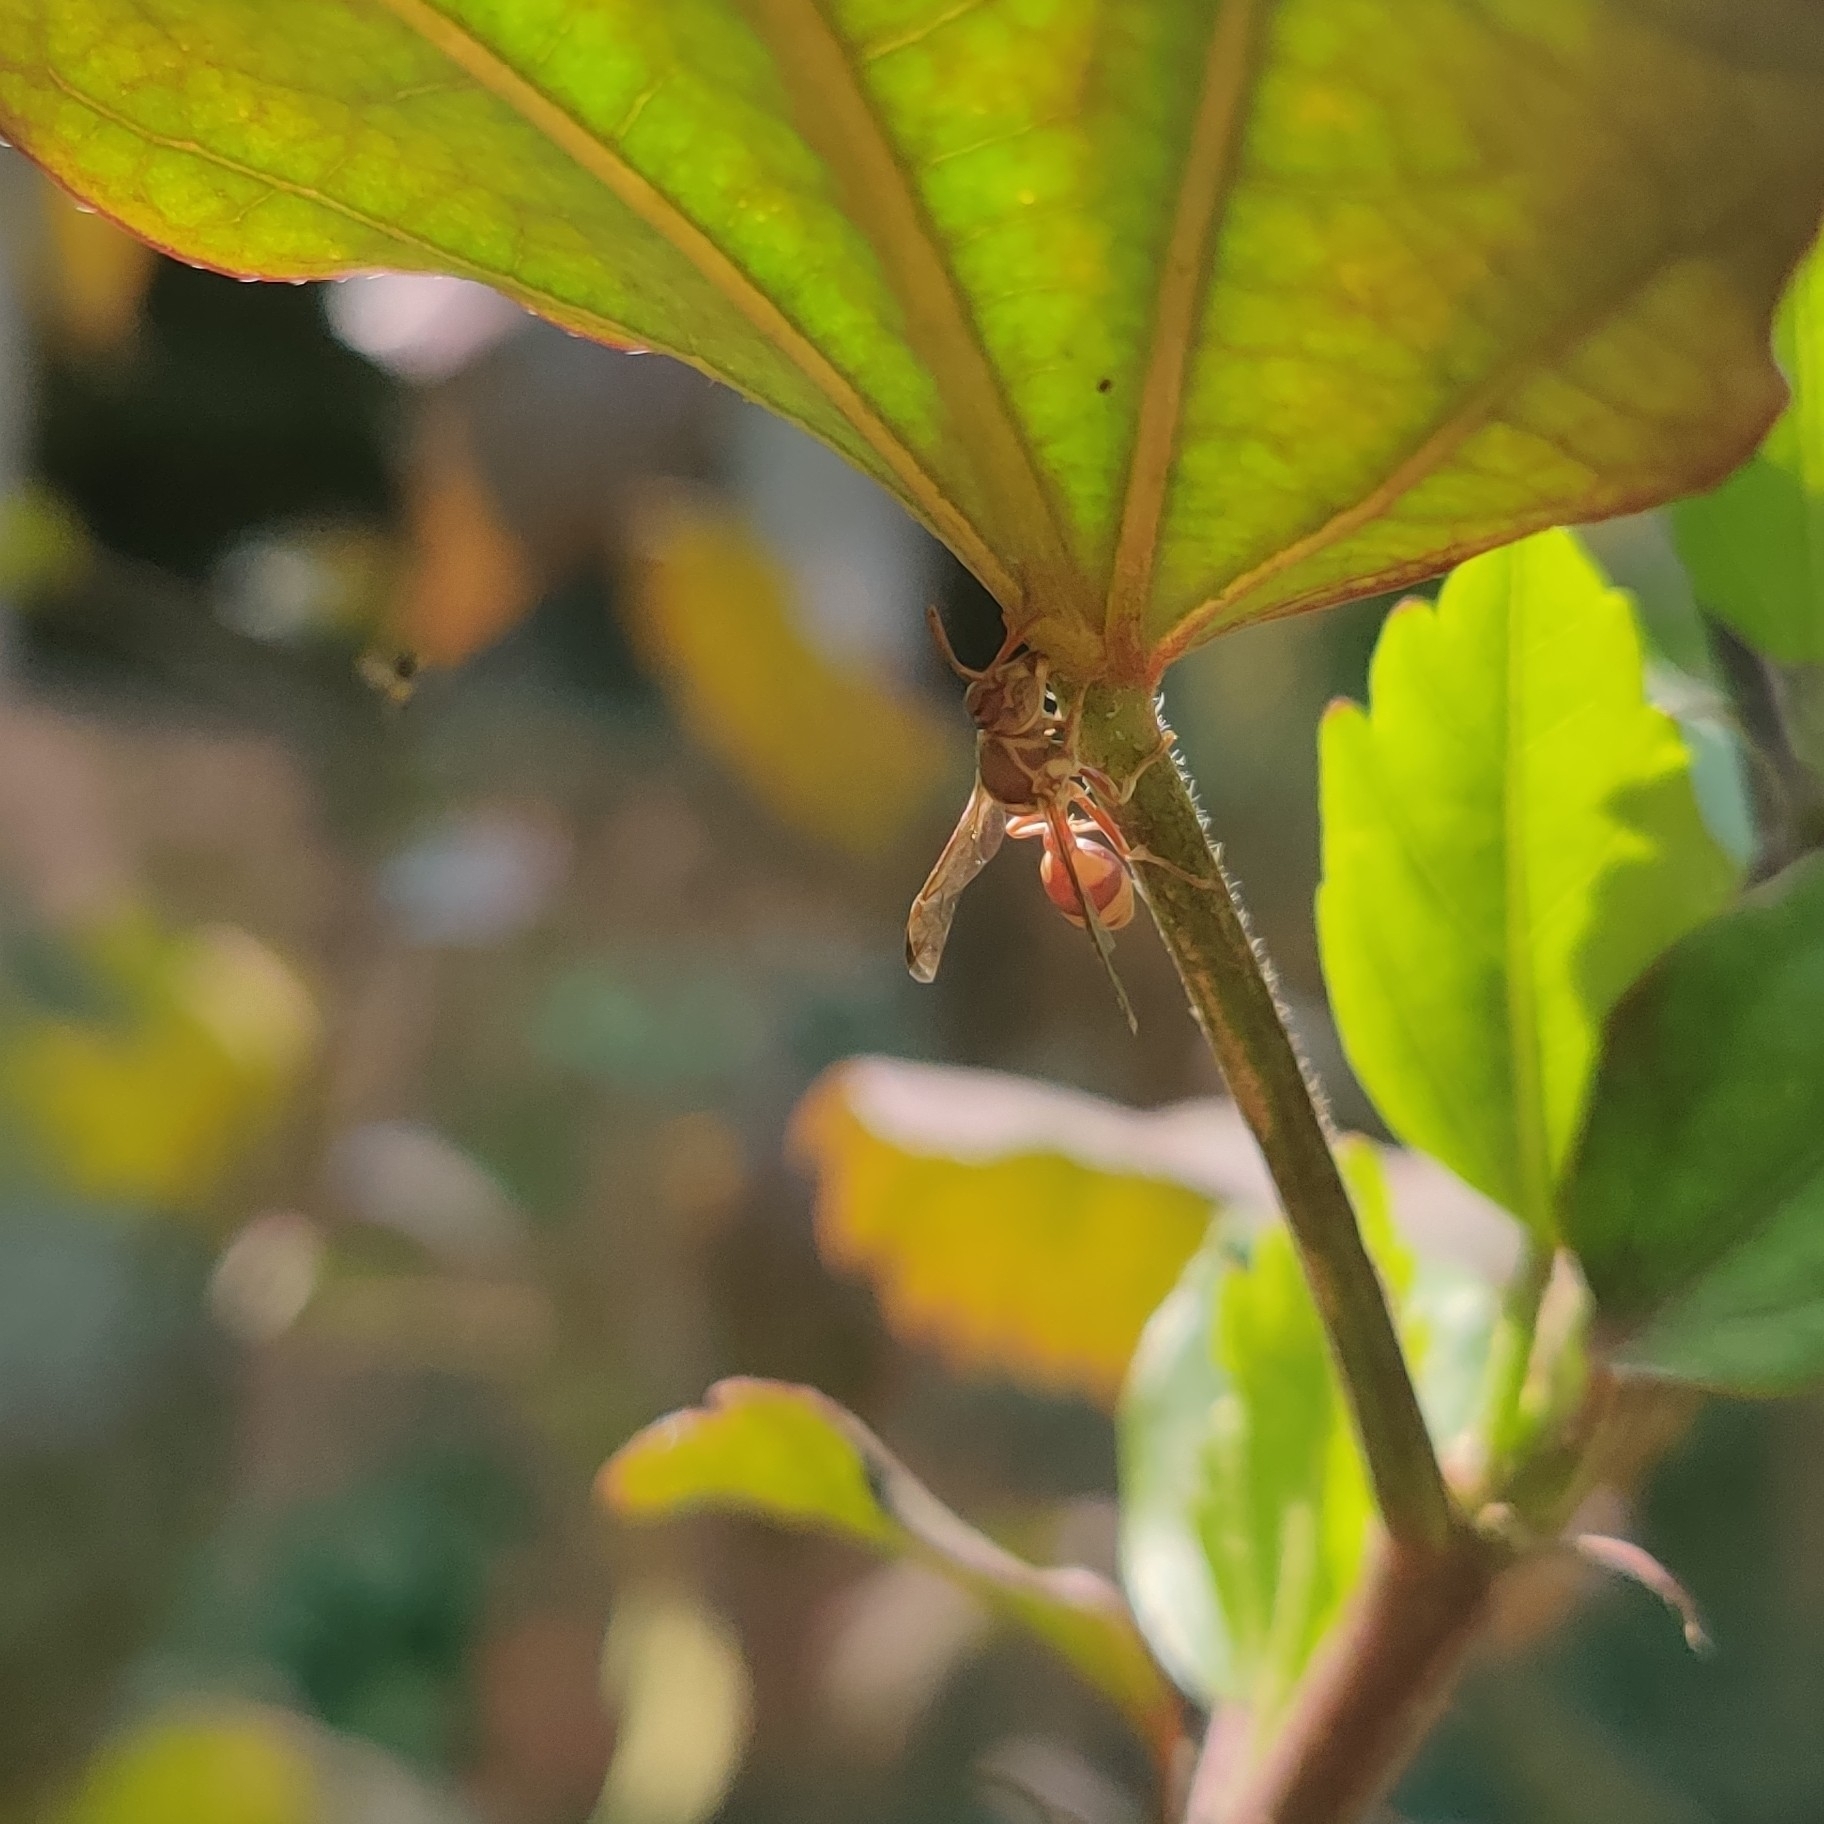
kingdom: Animalia
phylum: Arthropoda
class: Insecta
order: Hymenoptera
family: Vespidae
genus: Ropalidia
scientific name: Ropalidia variegata
